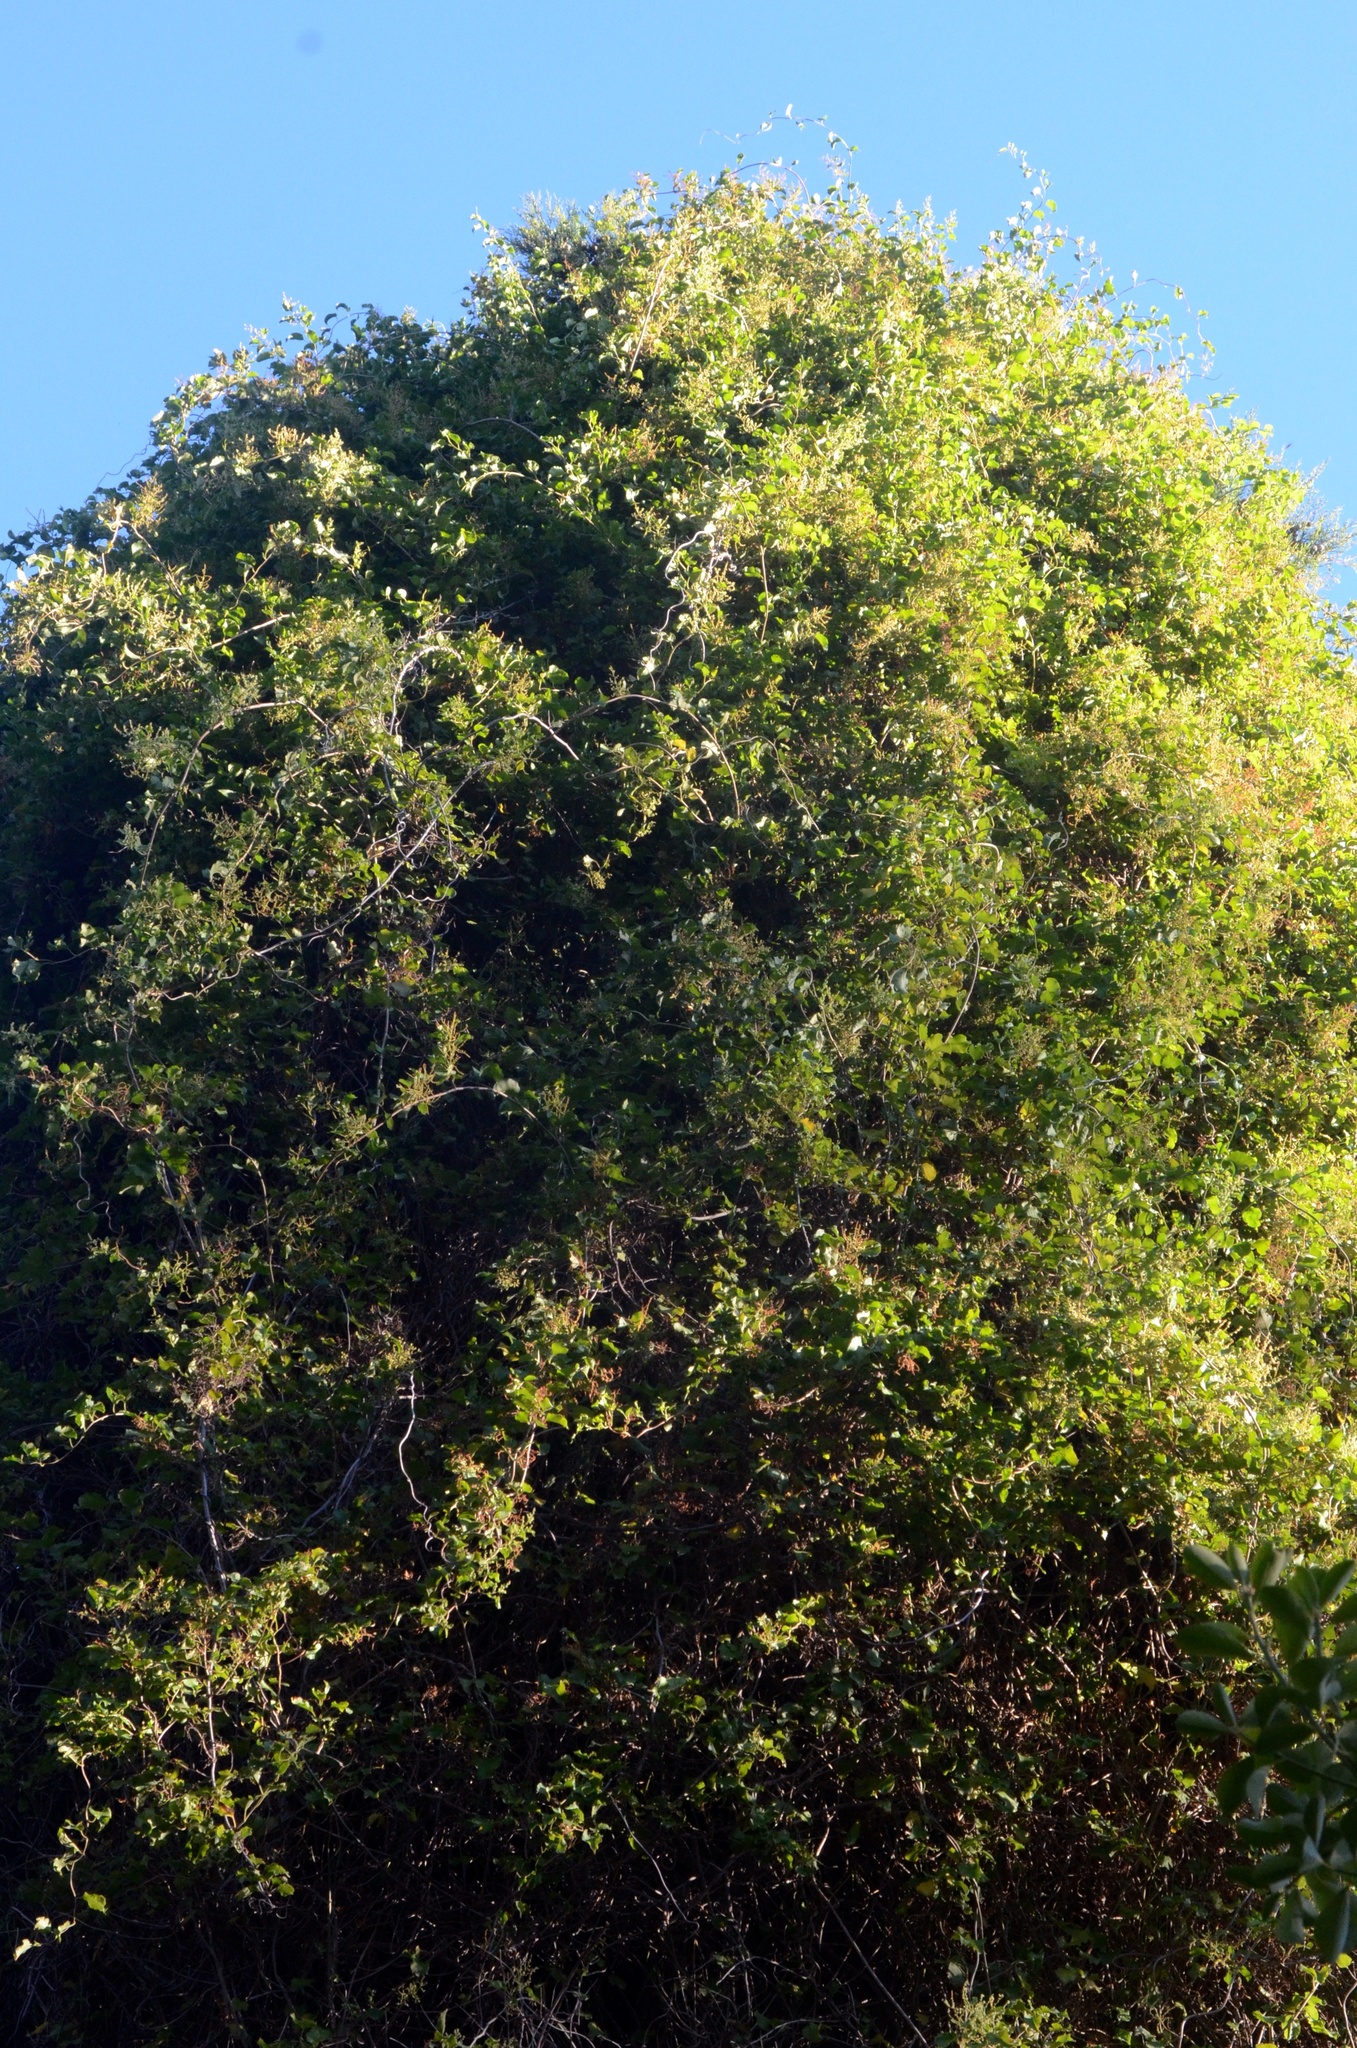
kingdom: Plantae
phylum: Tracheophyta
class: Magnoliopsida
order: Caryophyllales
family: Polygonaceae
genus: Muehlenbeckia
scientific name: Muehlenbeckia australis
